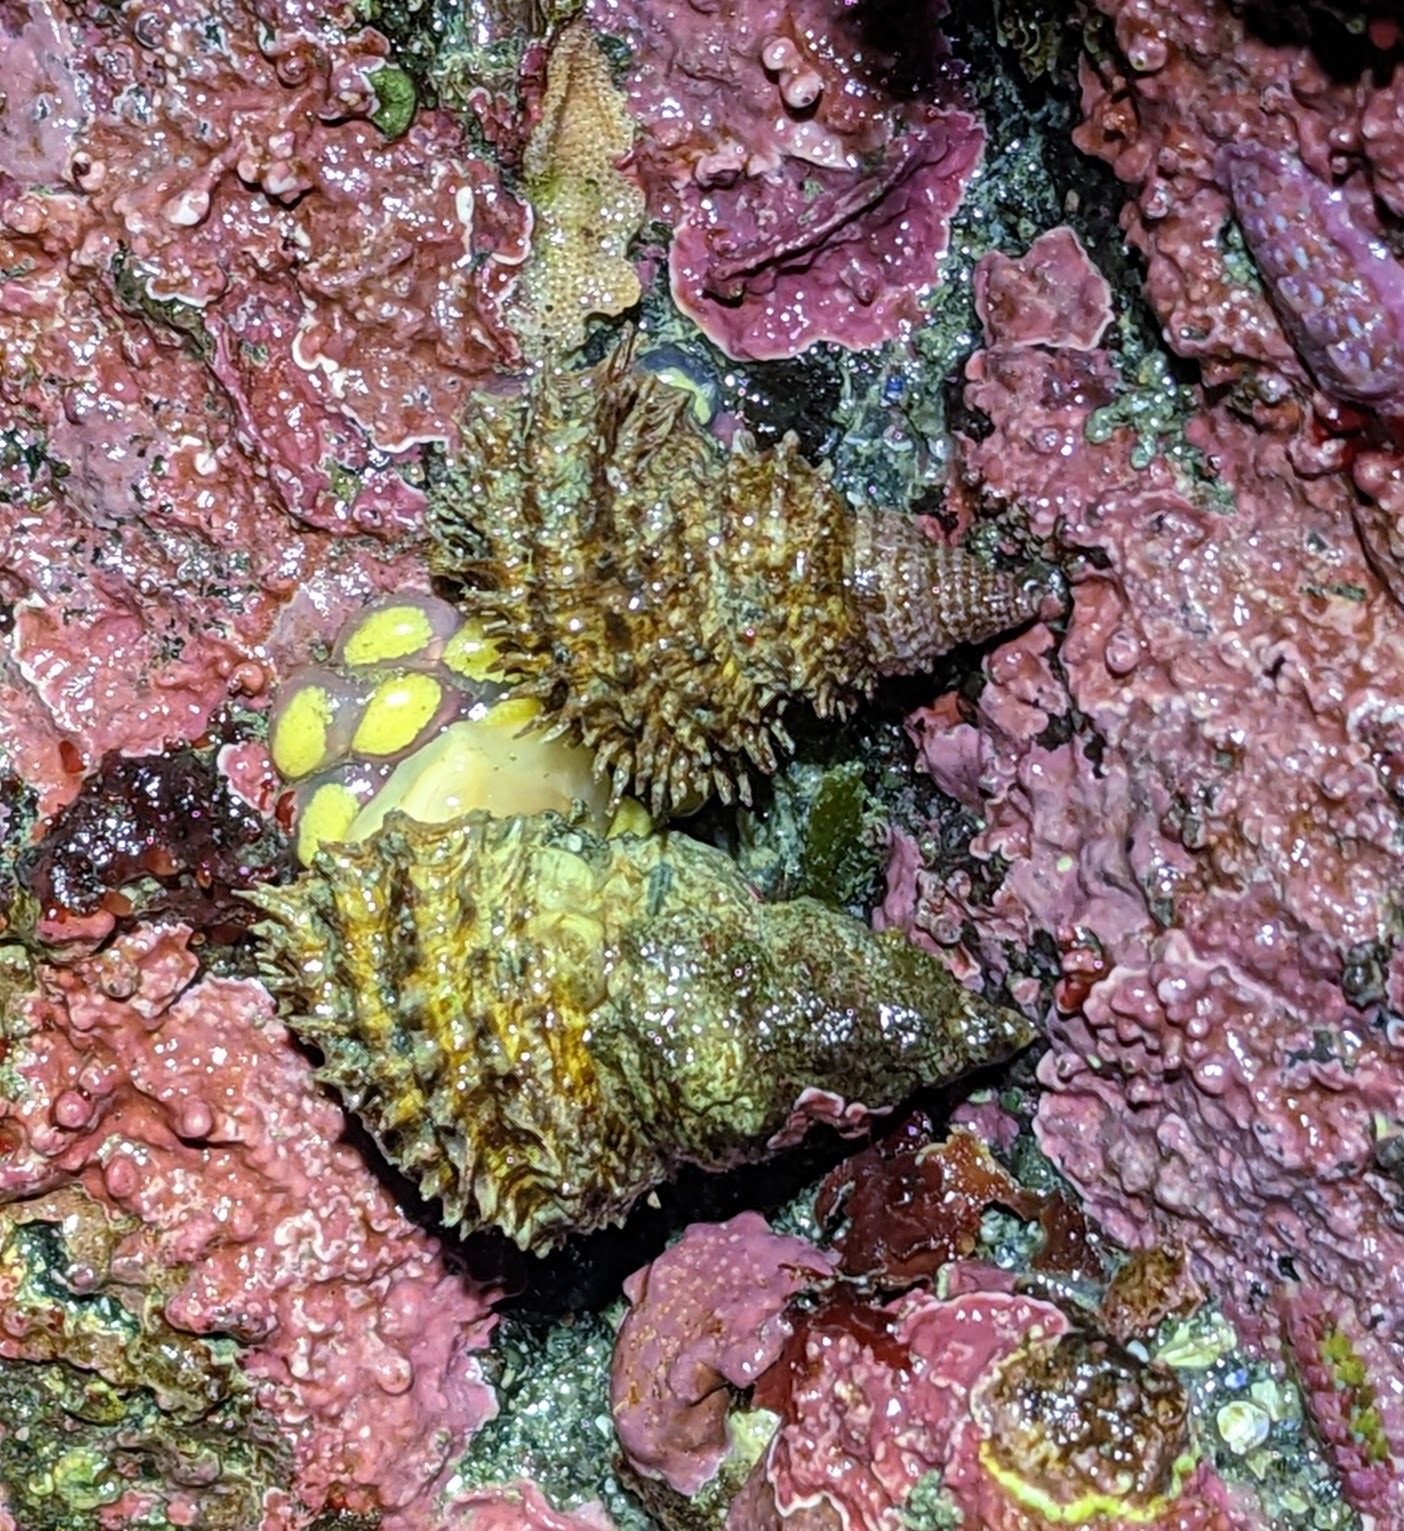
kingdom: Animalia
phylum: Mollusca
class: Gastropoda
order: Littorinimorpha
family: Capulidae
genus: Trichotropis
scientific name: Trichotropis cancellata
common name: Cancellate hairysnail
